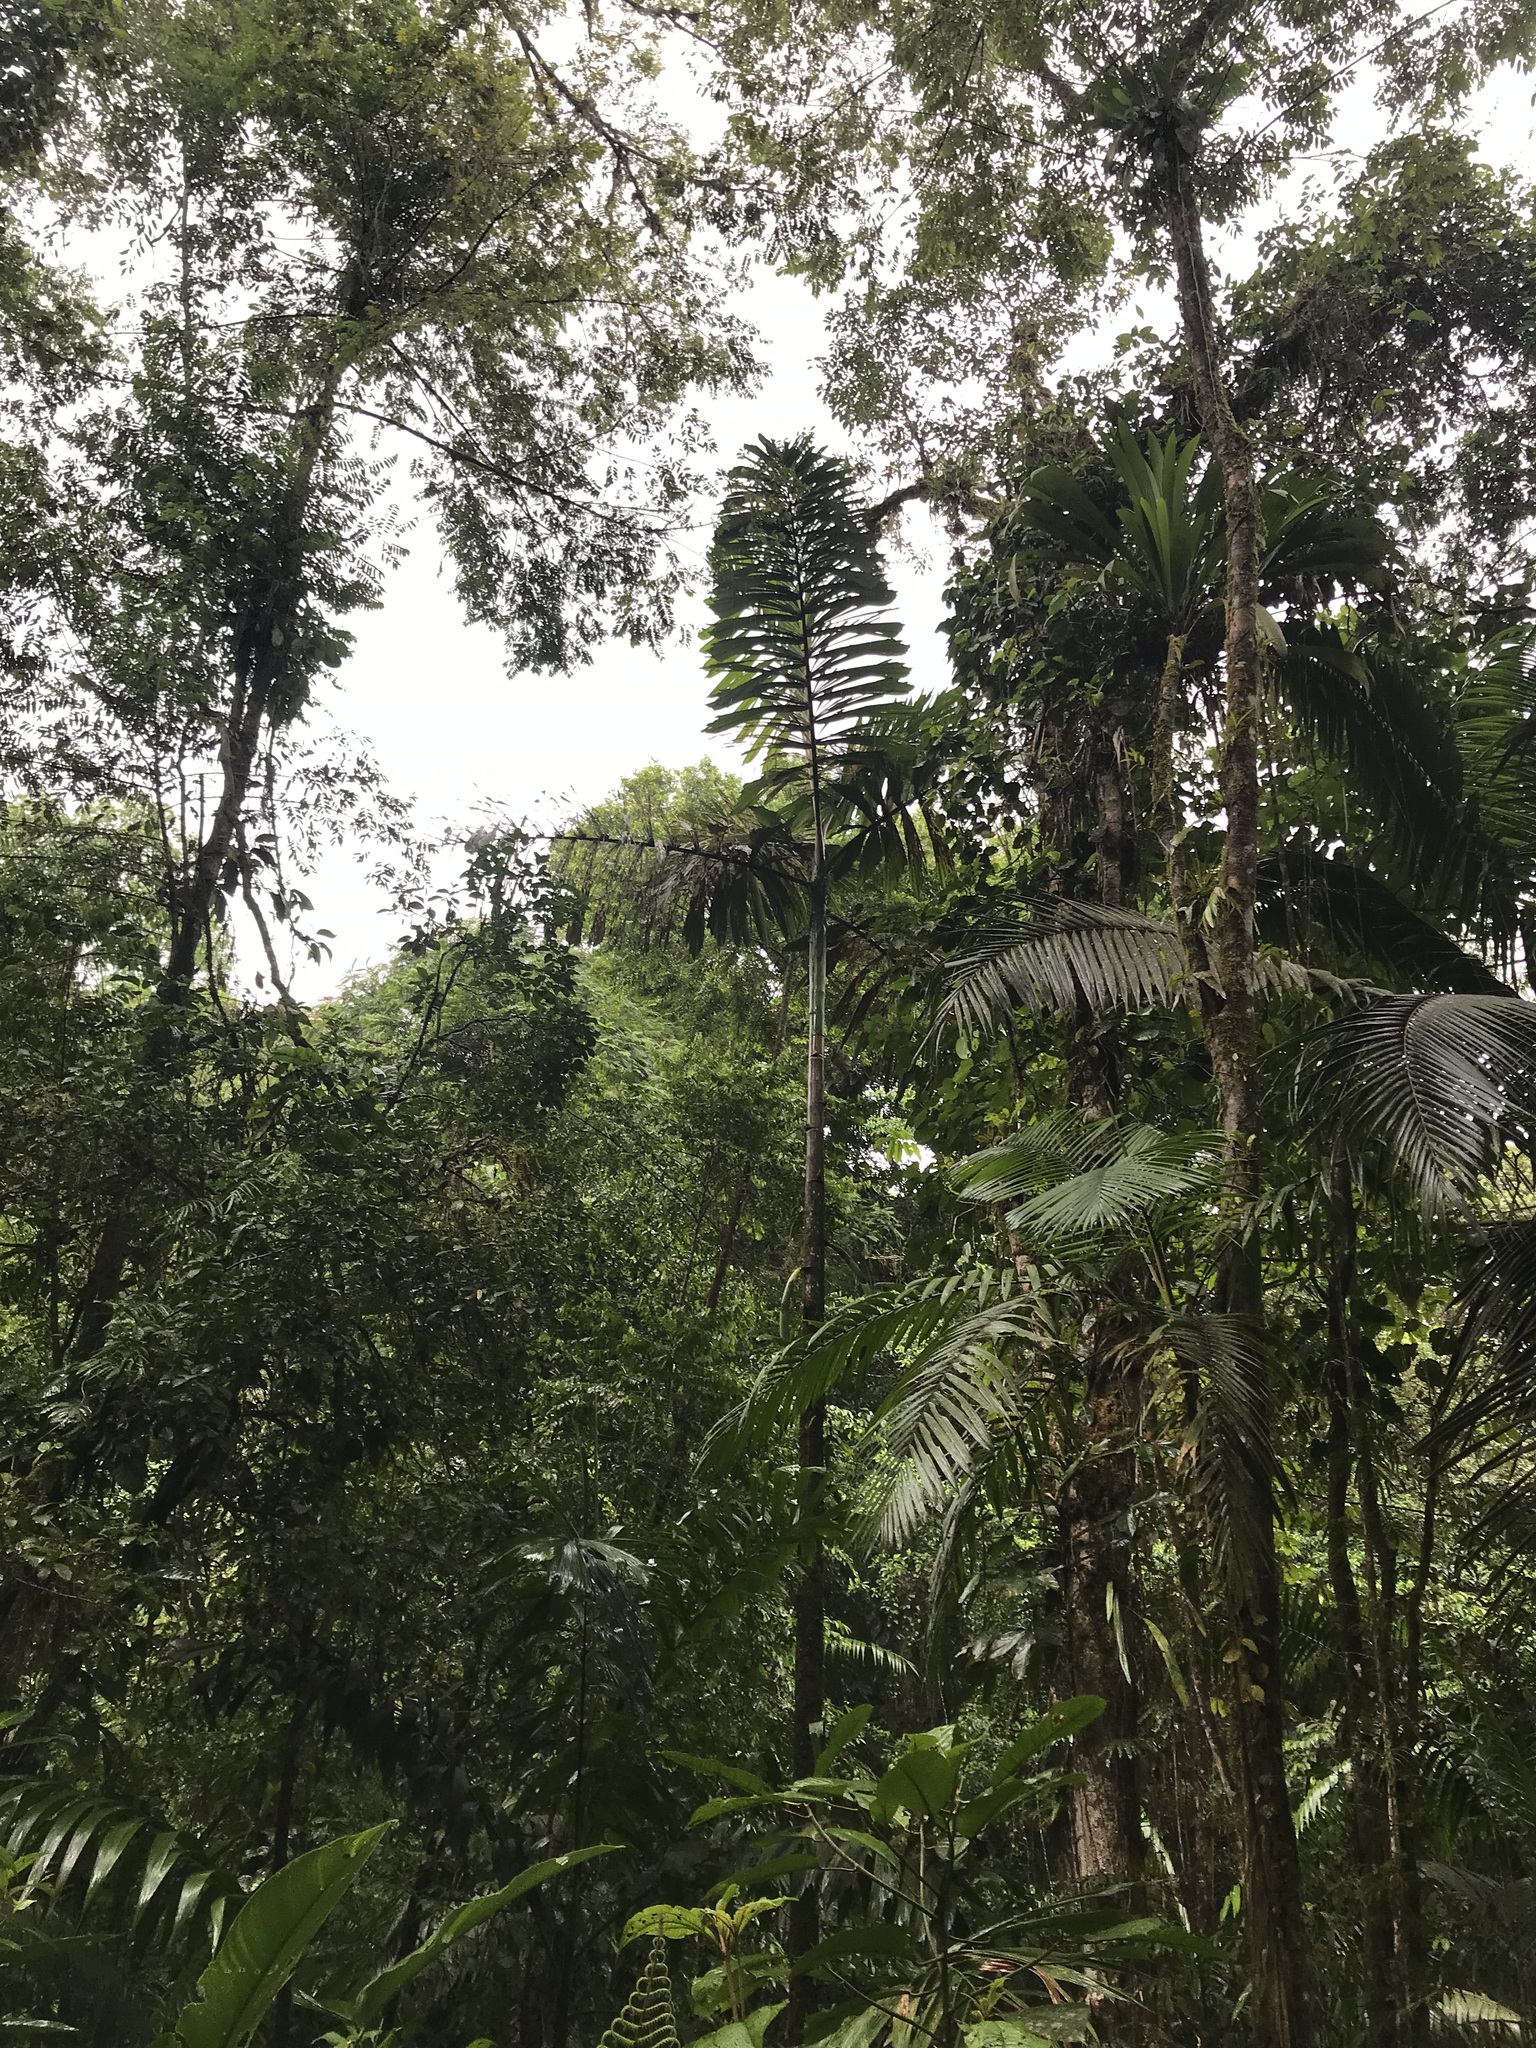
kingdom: Plantae
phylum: Tracheophyta
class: Liliopsida
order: Arecales
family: Arecaceae
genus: Socratea
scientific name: Socratea exorrhiza
